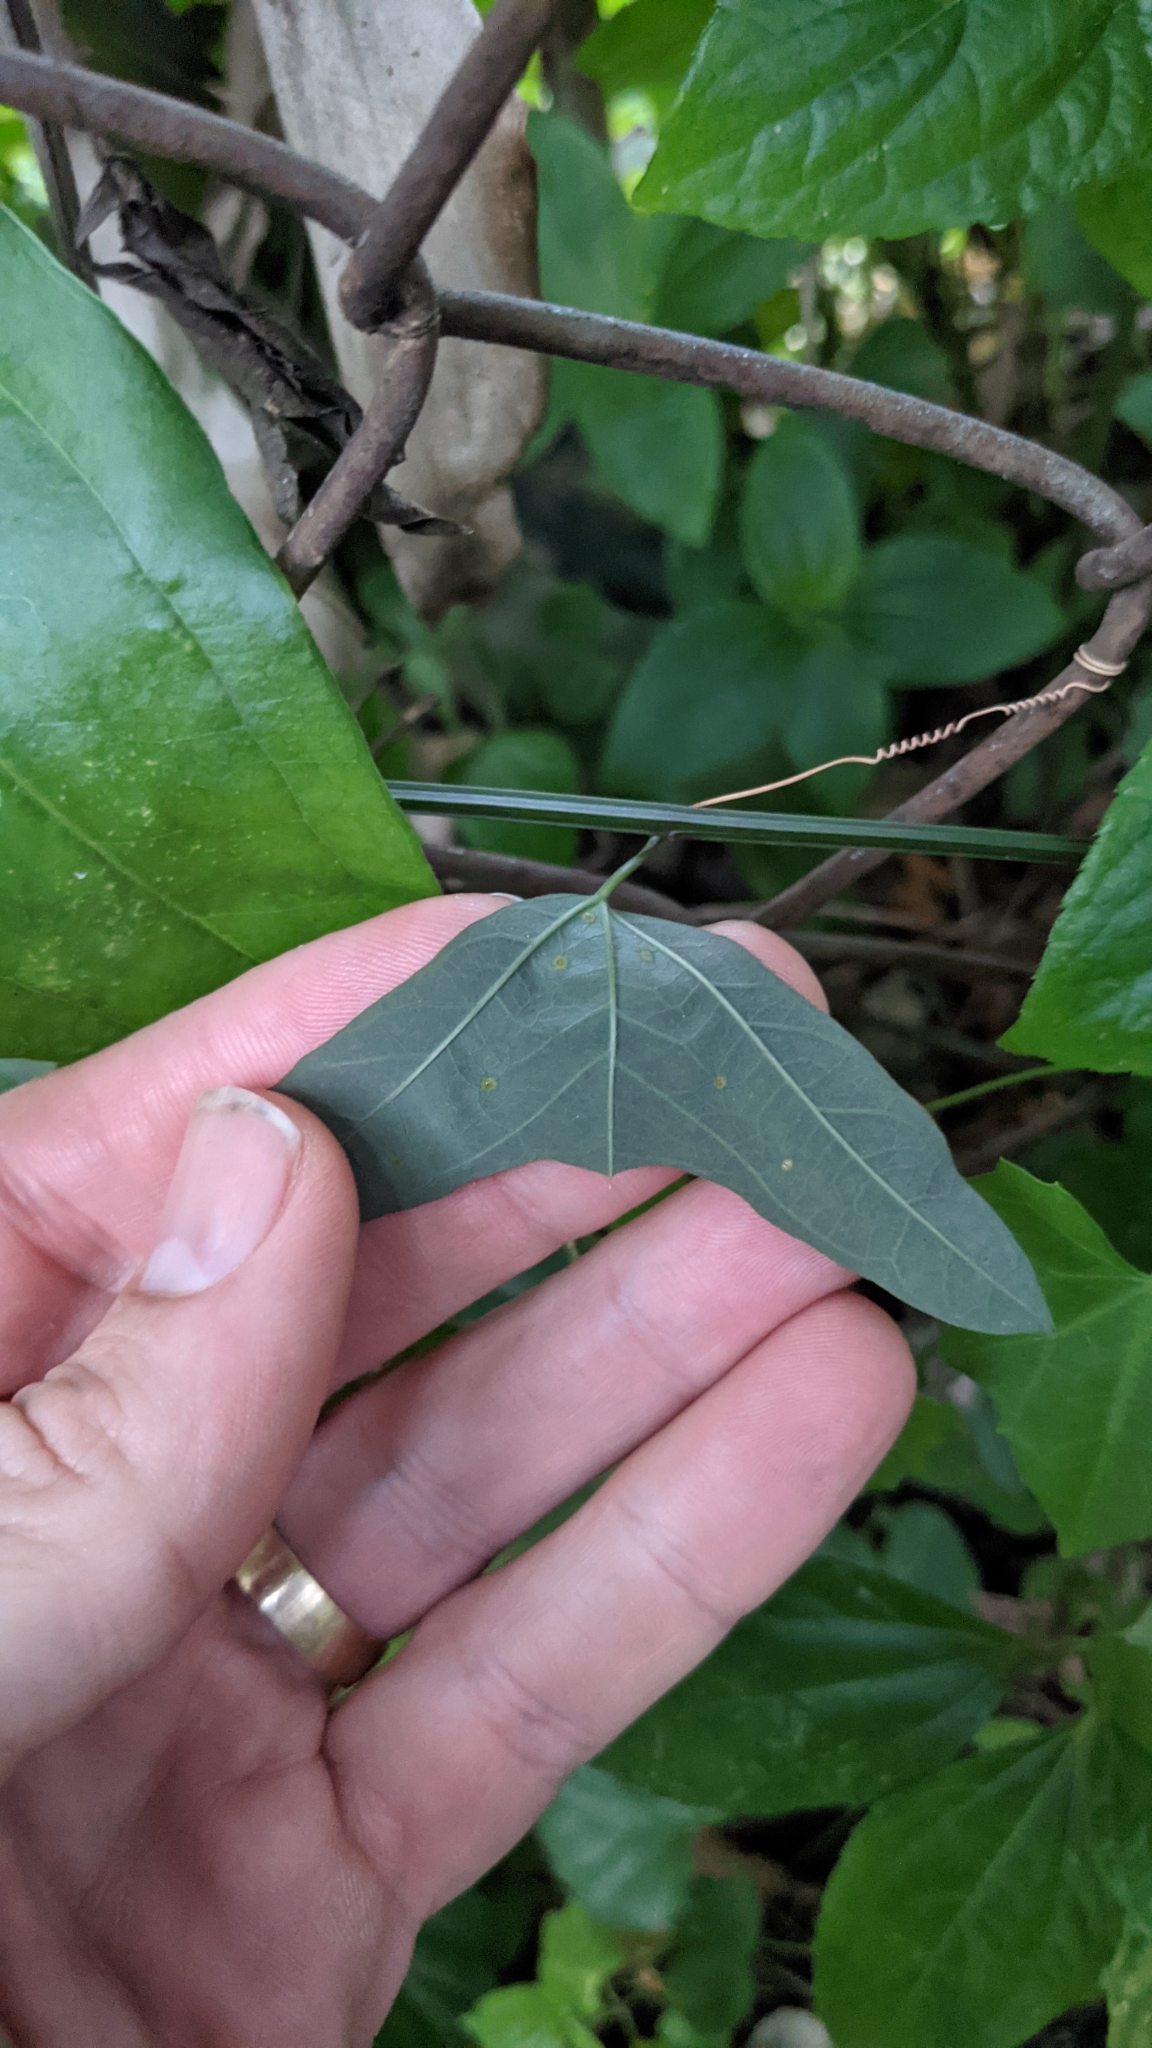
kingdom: Plantae
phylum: Tracheophyta
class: Magnoliopsida
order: Malpighiales
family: Passifloraceae
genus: Passiflora
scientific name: Passiflora biflora
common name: Twoflower passionflower
